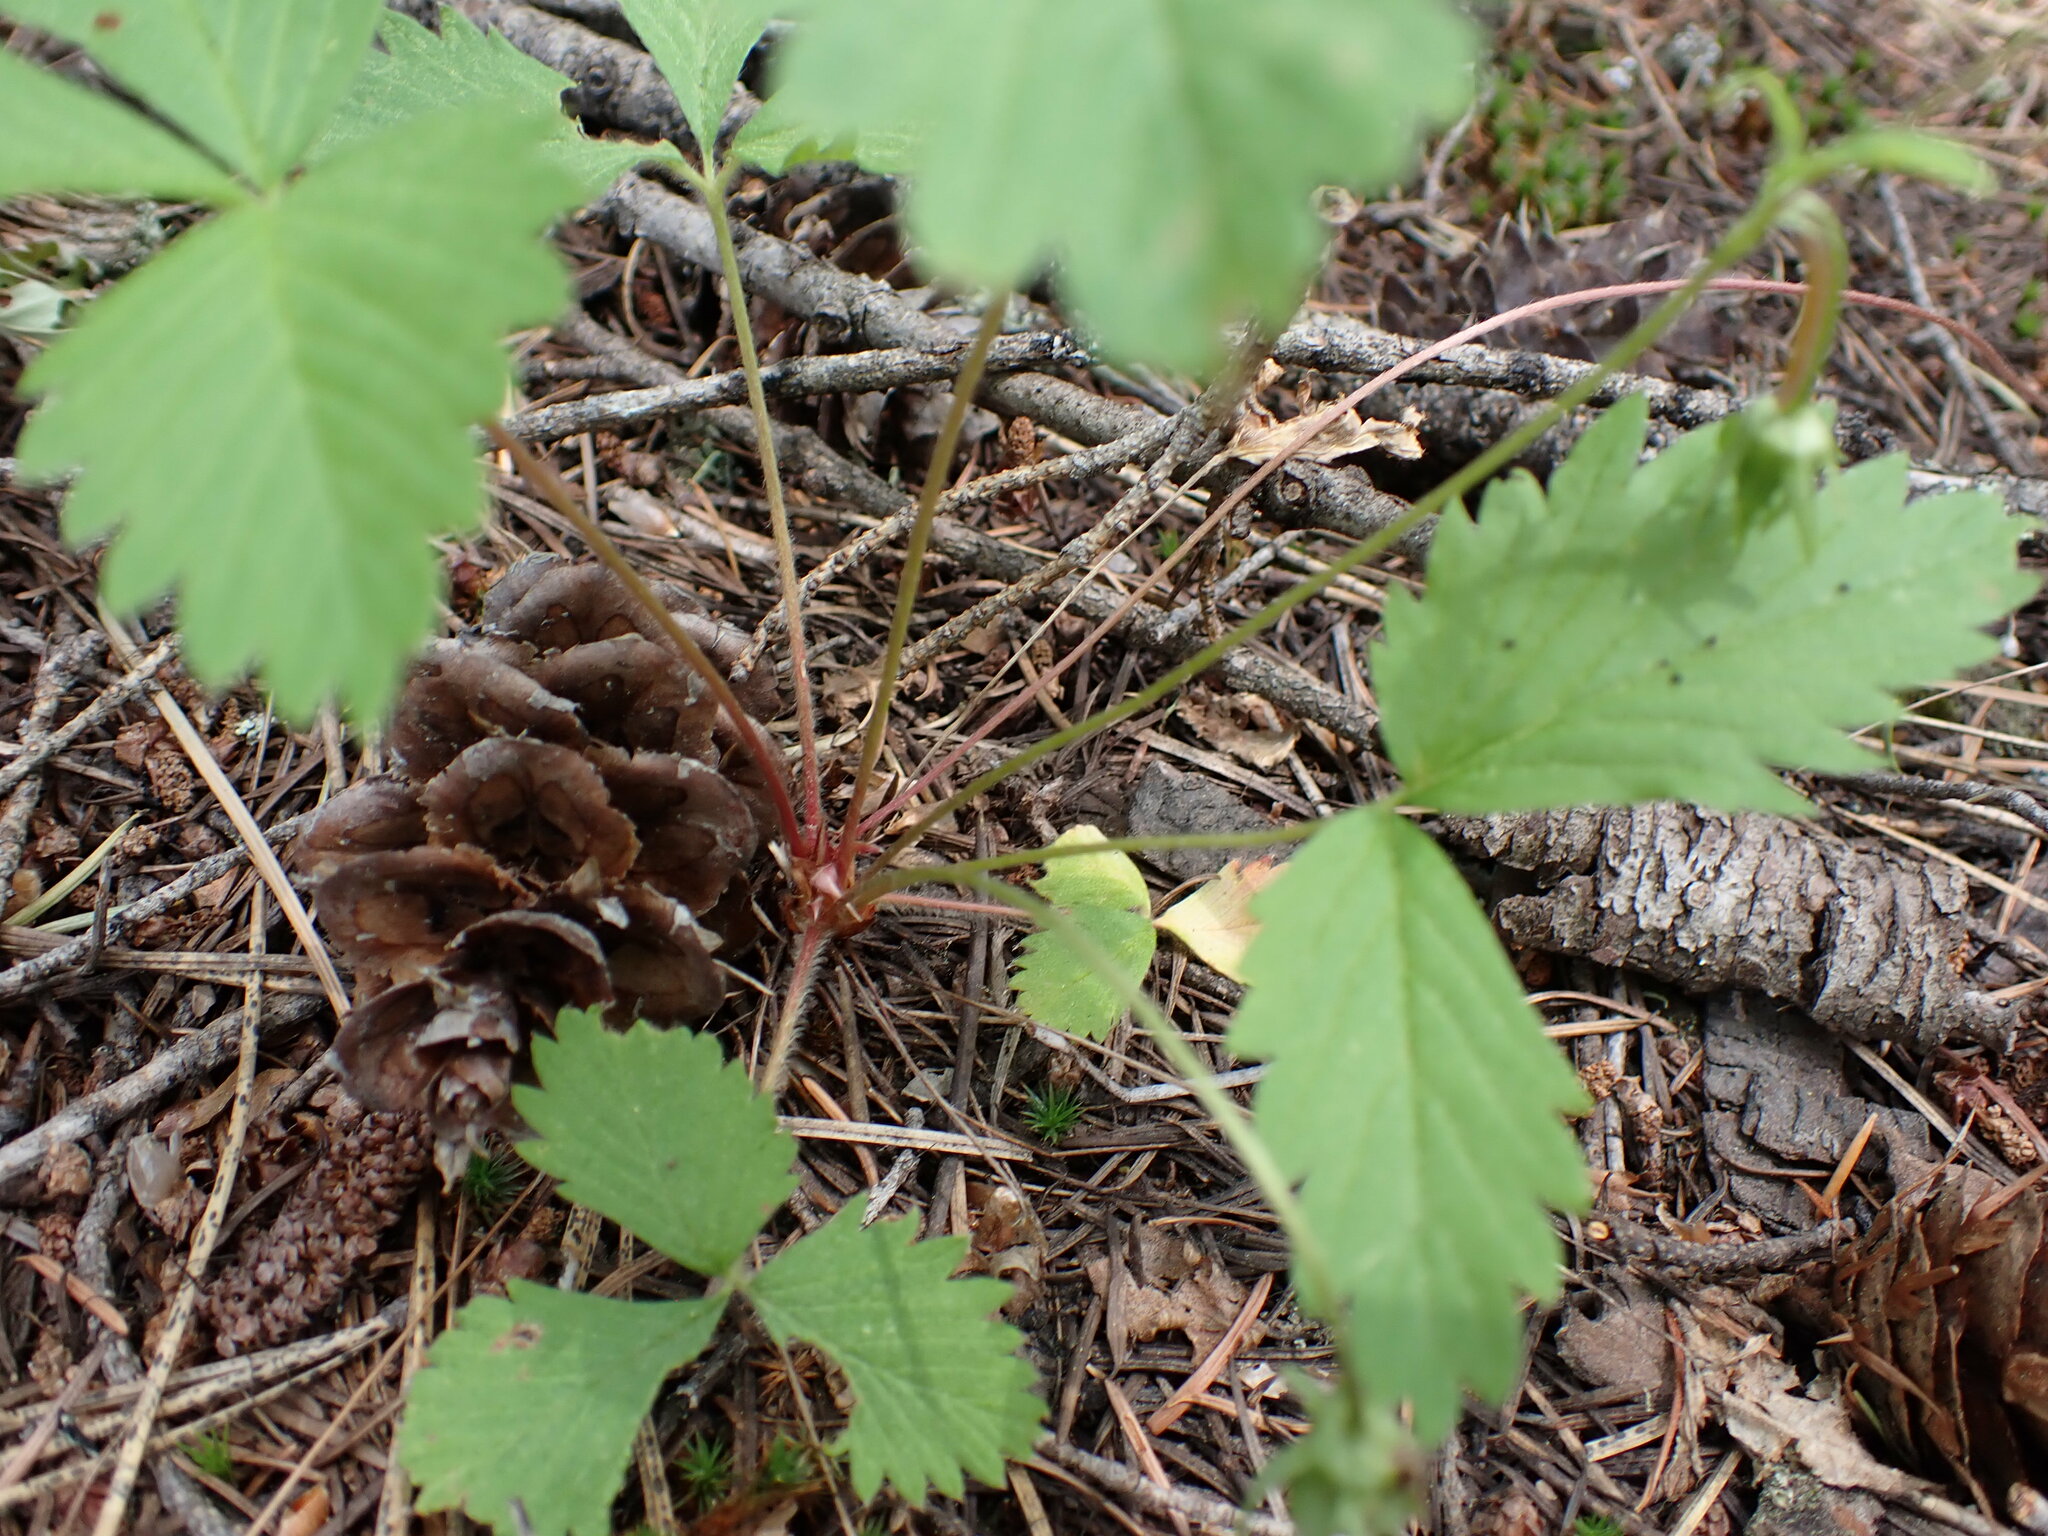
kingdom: Plantae
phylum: Tracheophyta
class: Magnoliopsida
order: Rosales
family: Rosaceae
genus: Fragaria
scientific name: Fragaria vesca
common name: Wild strawberry
